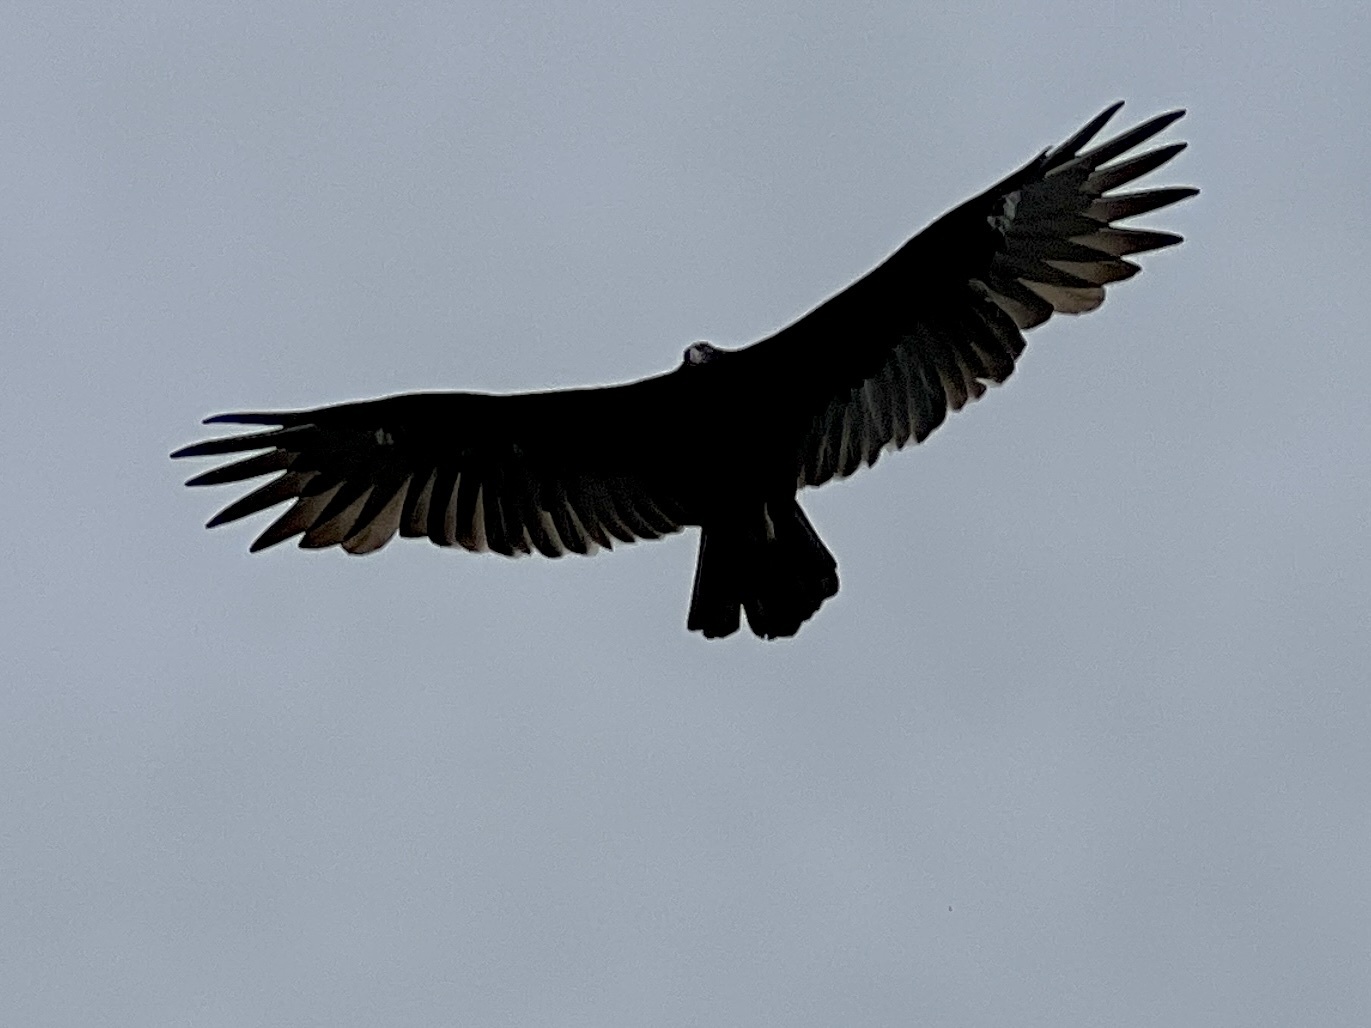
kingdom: Animalia
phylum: Chordata
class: Aves
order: Accipitriformes
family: Cathartidae
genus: Cathartes
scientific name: Cathartes aura
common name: Turkey vulture
